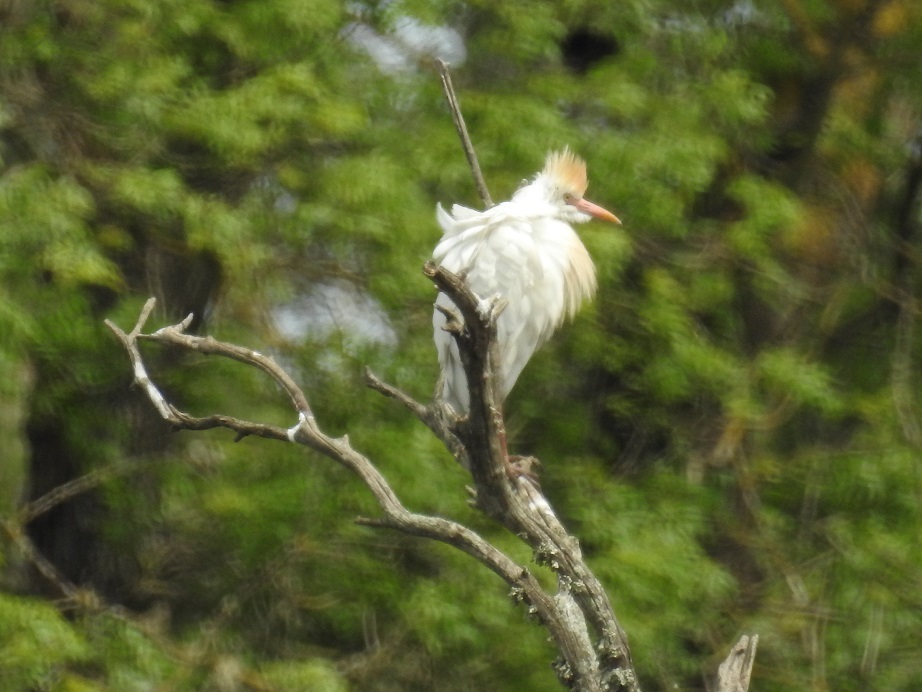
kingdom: Animalia
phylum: Chordata
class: Aves
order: Pelecaniformes
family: Ardeidae
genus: Bubulcus
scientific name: Bubulcus ibis
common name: Cattle egret
